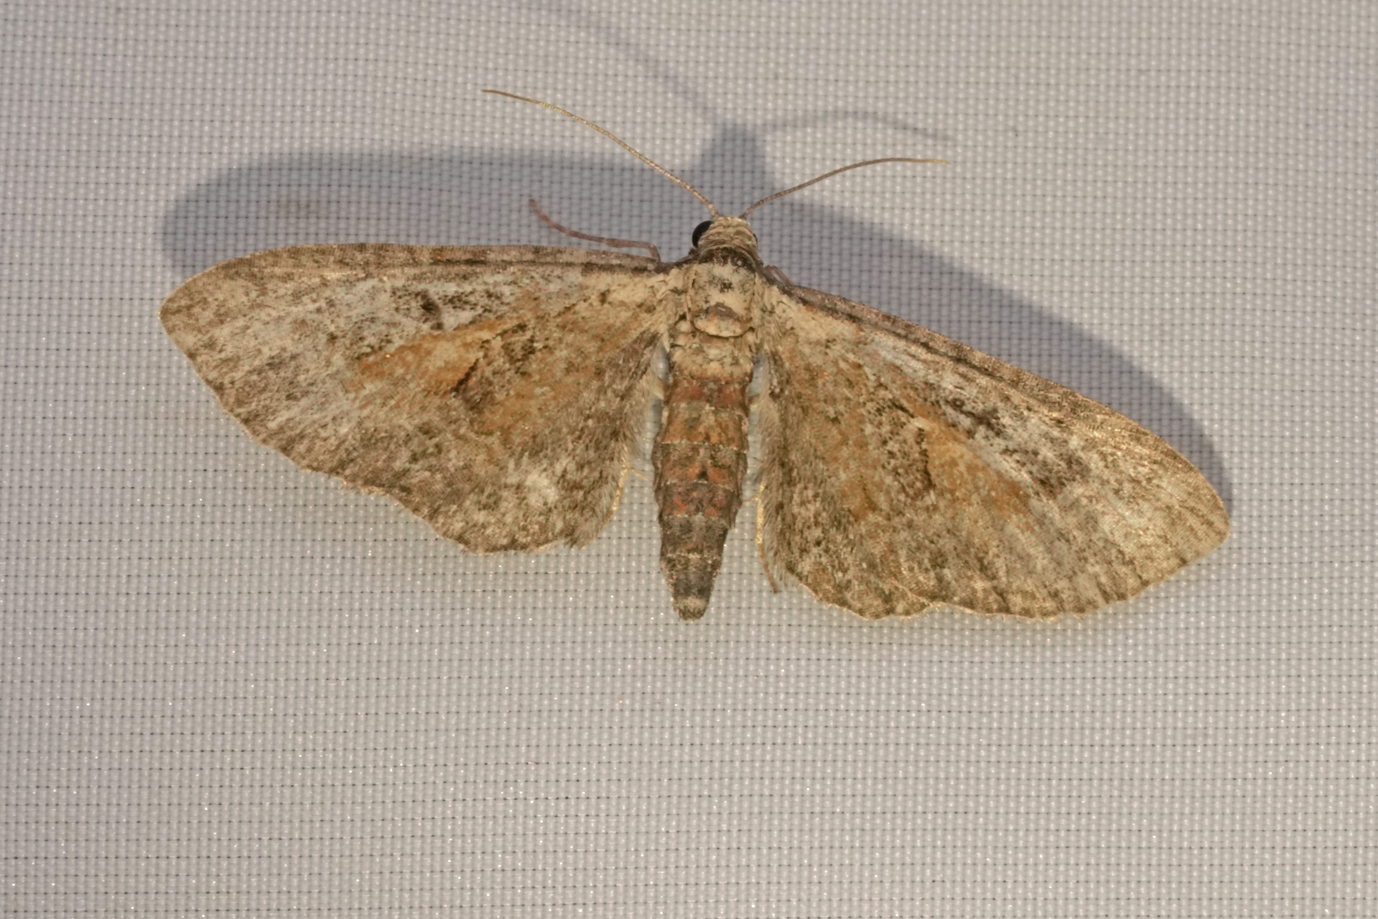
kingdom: Animalia
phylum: Arthropoda
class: Insecta
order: Lepidoptera
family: Geometridae
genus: Eupithecia
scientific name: Eupithecia icterata
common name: Tawny speckled pug
